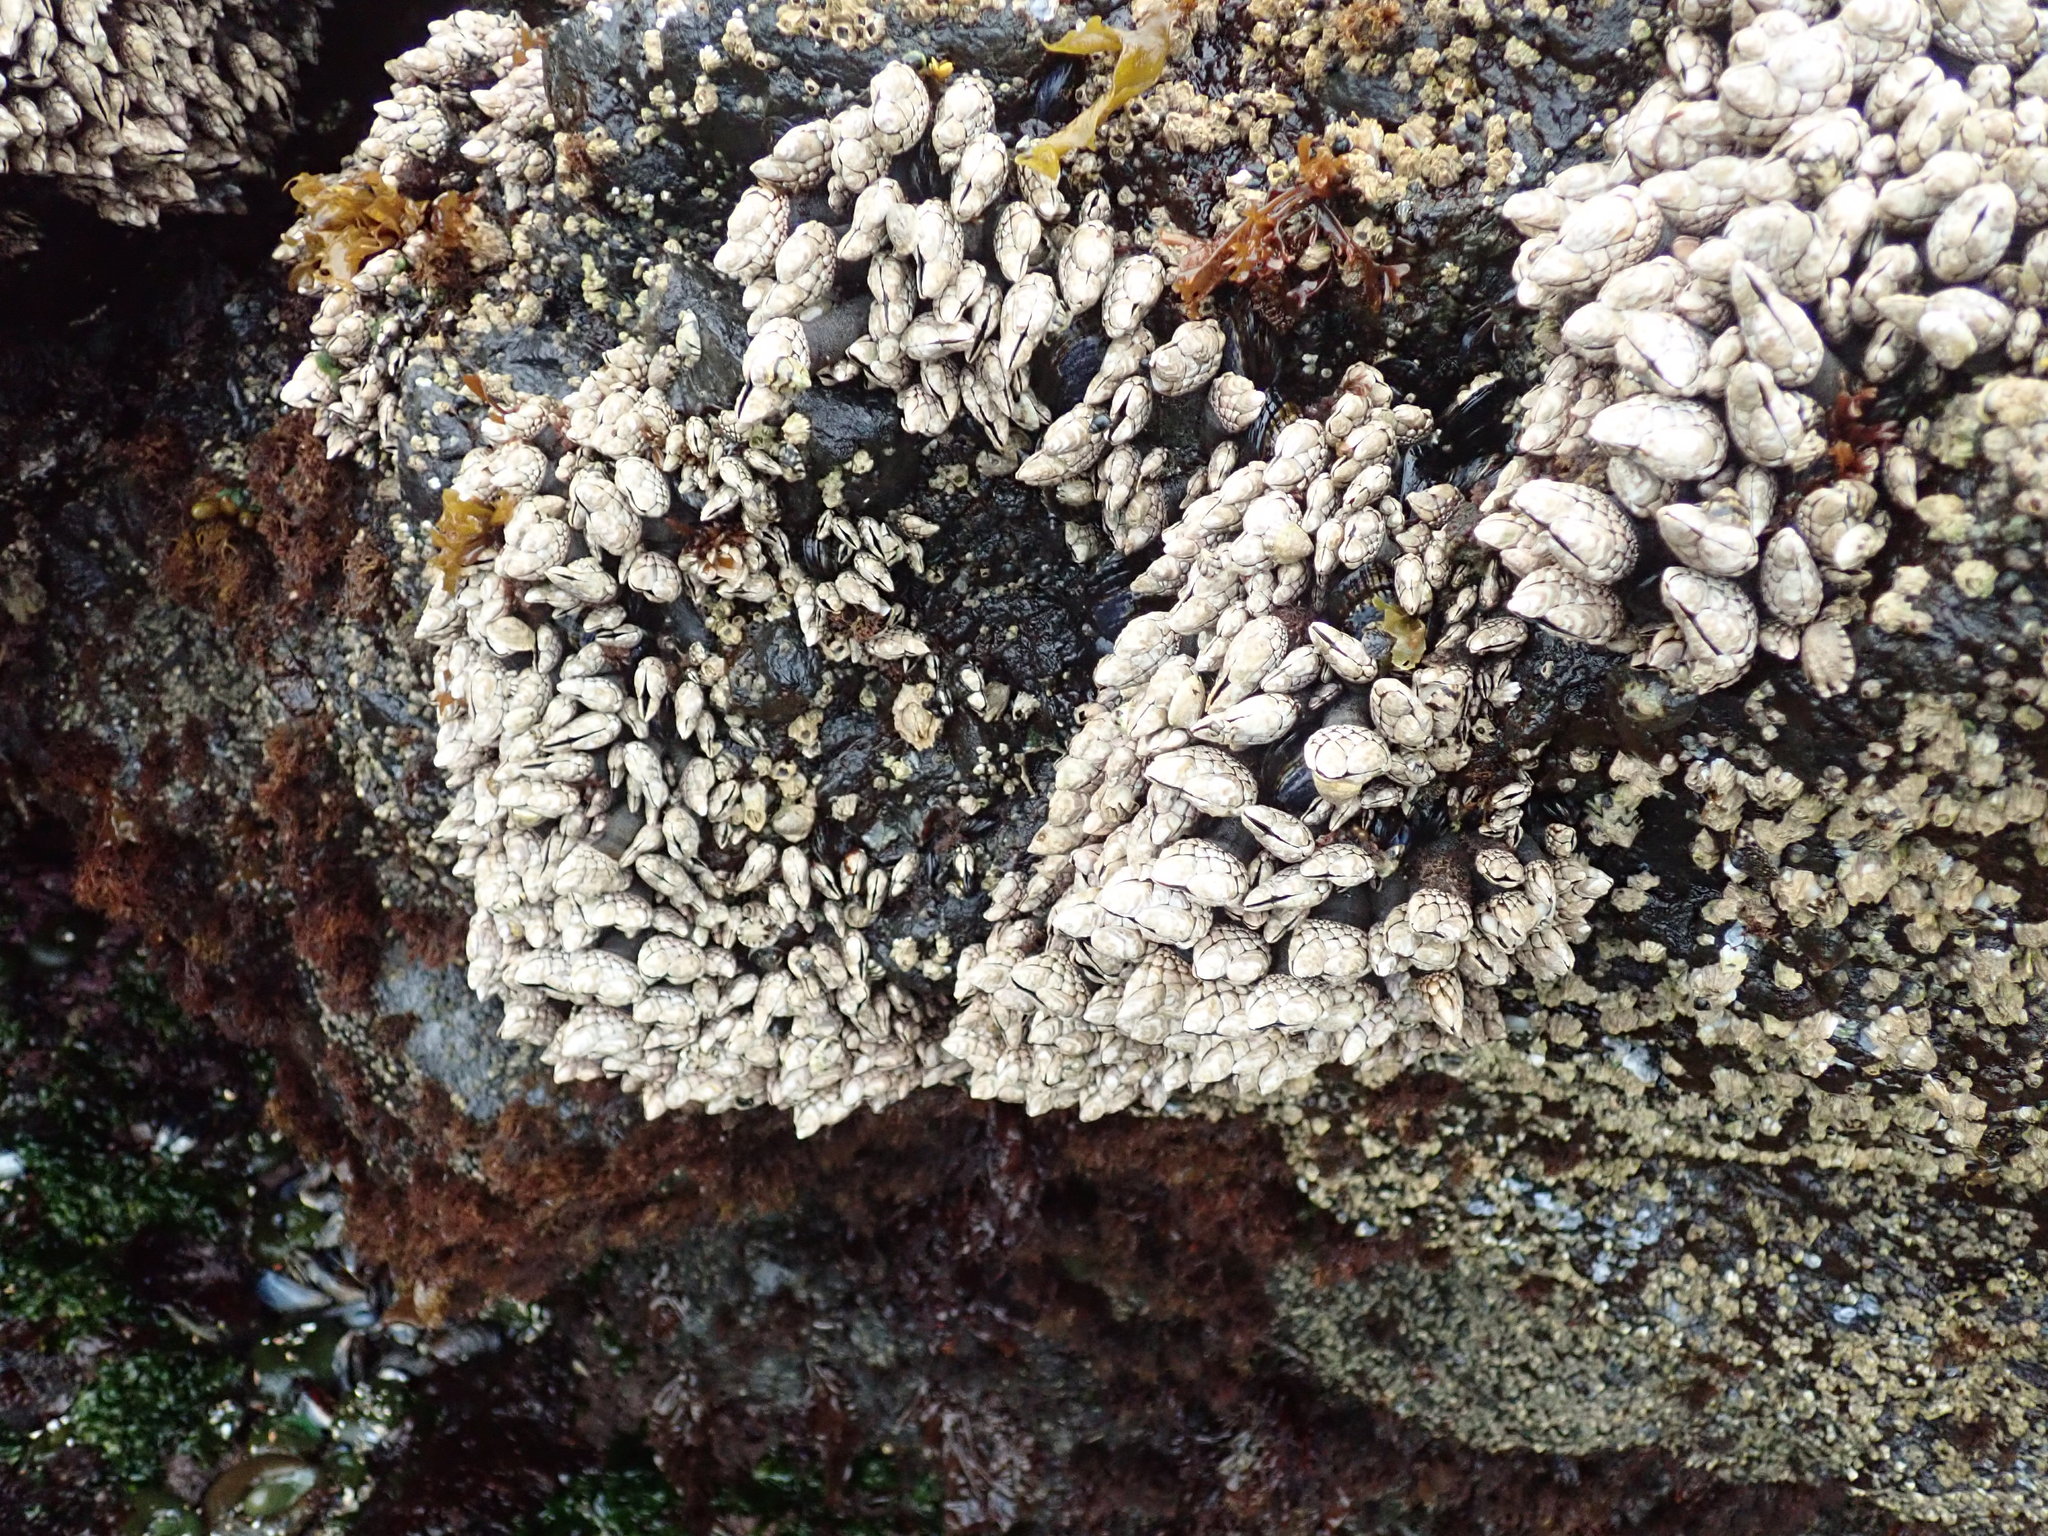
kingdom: Animalia
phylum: Arthropoda
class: Maxillopoda
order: Pedunculata
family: Pollicipedidae
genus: Pollicipes
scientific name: Pollicipes polymerus
